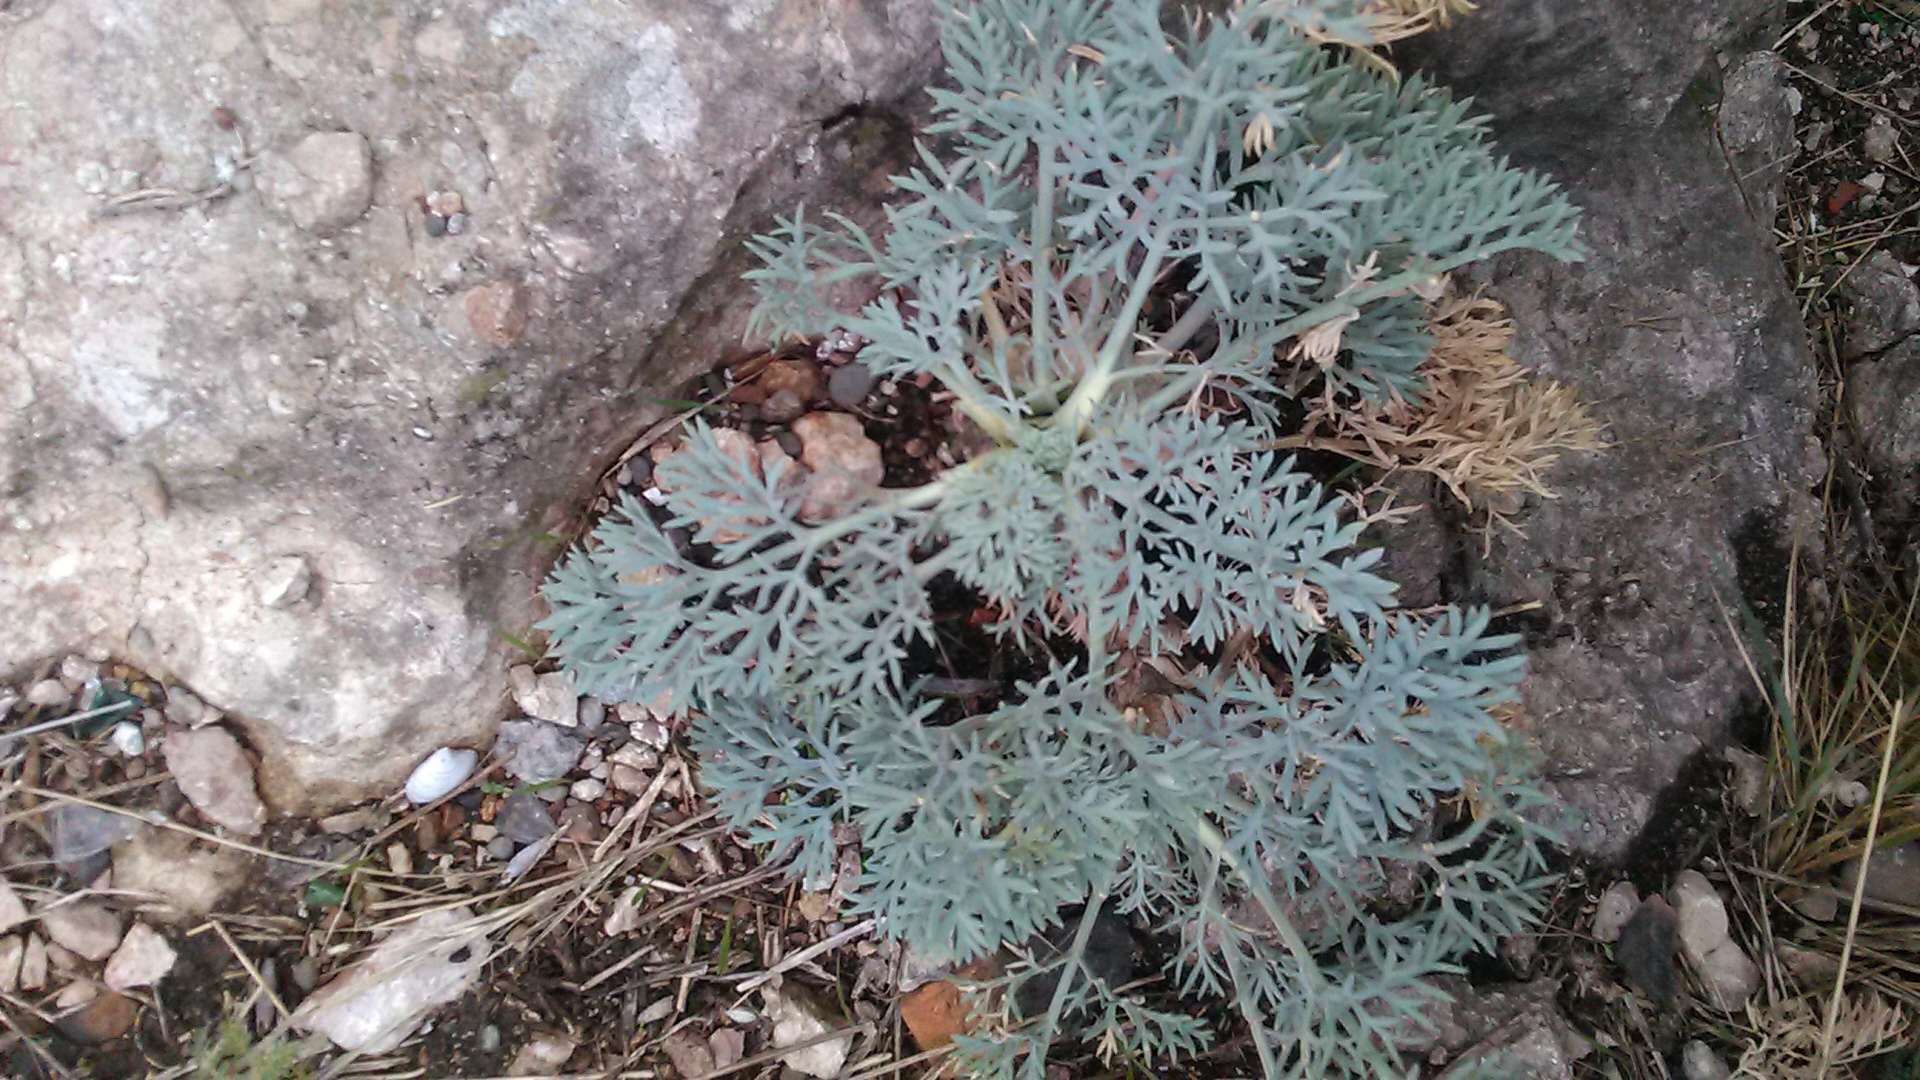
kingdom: Plantae
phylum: Tracheophyta
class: Magnoliopsida
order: Apiales
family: Apiaceae
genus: Seseli
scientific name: Seseli gummiferum
